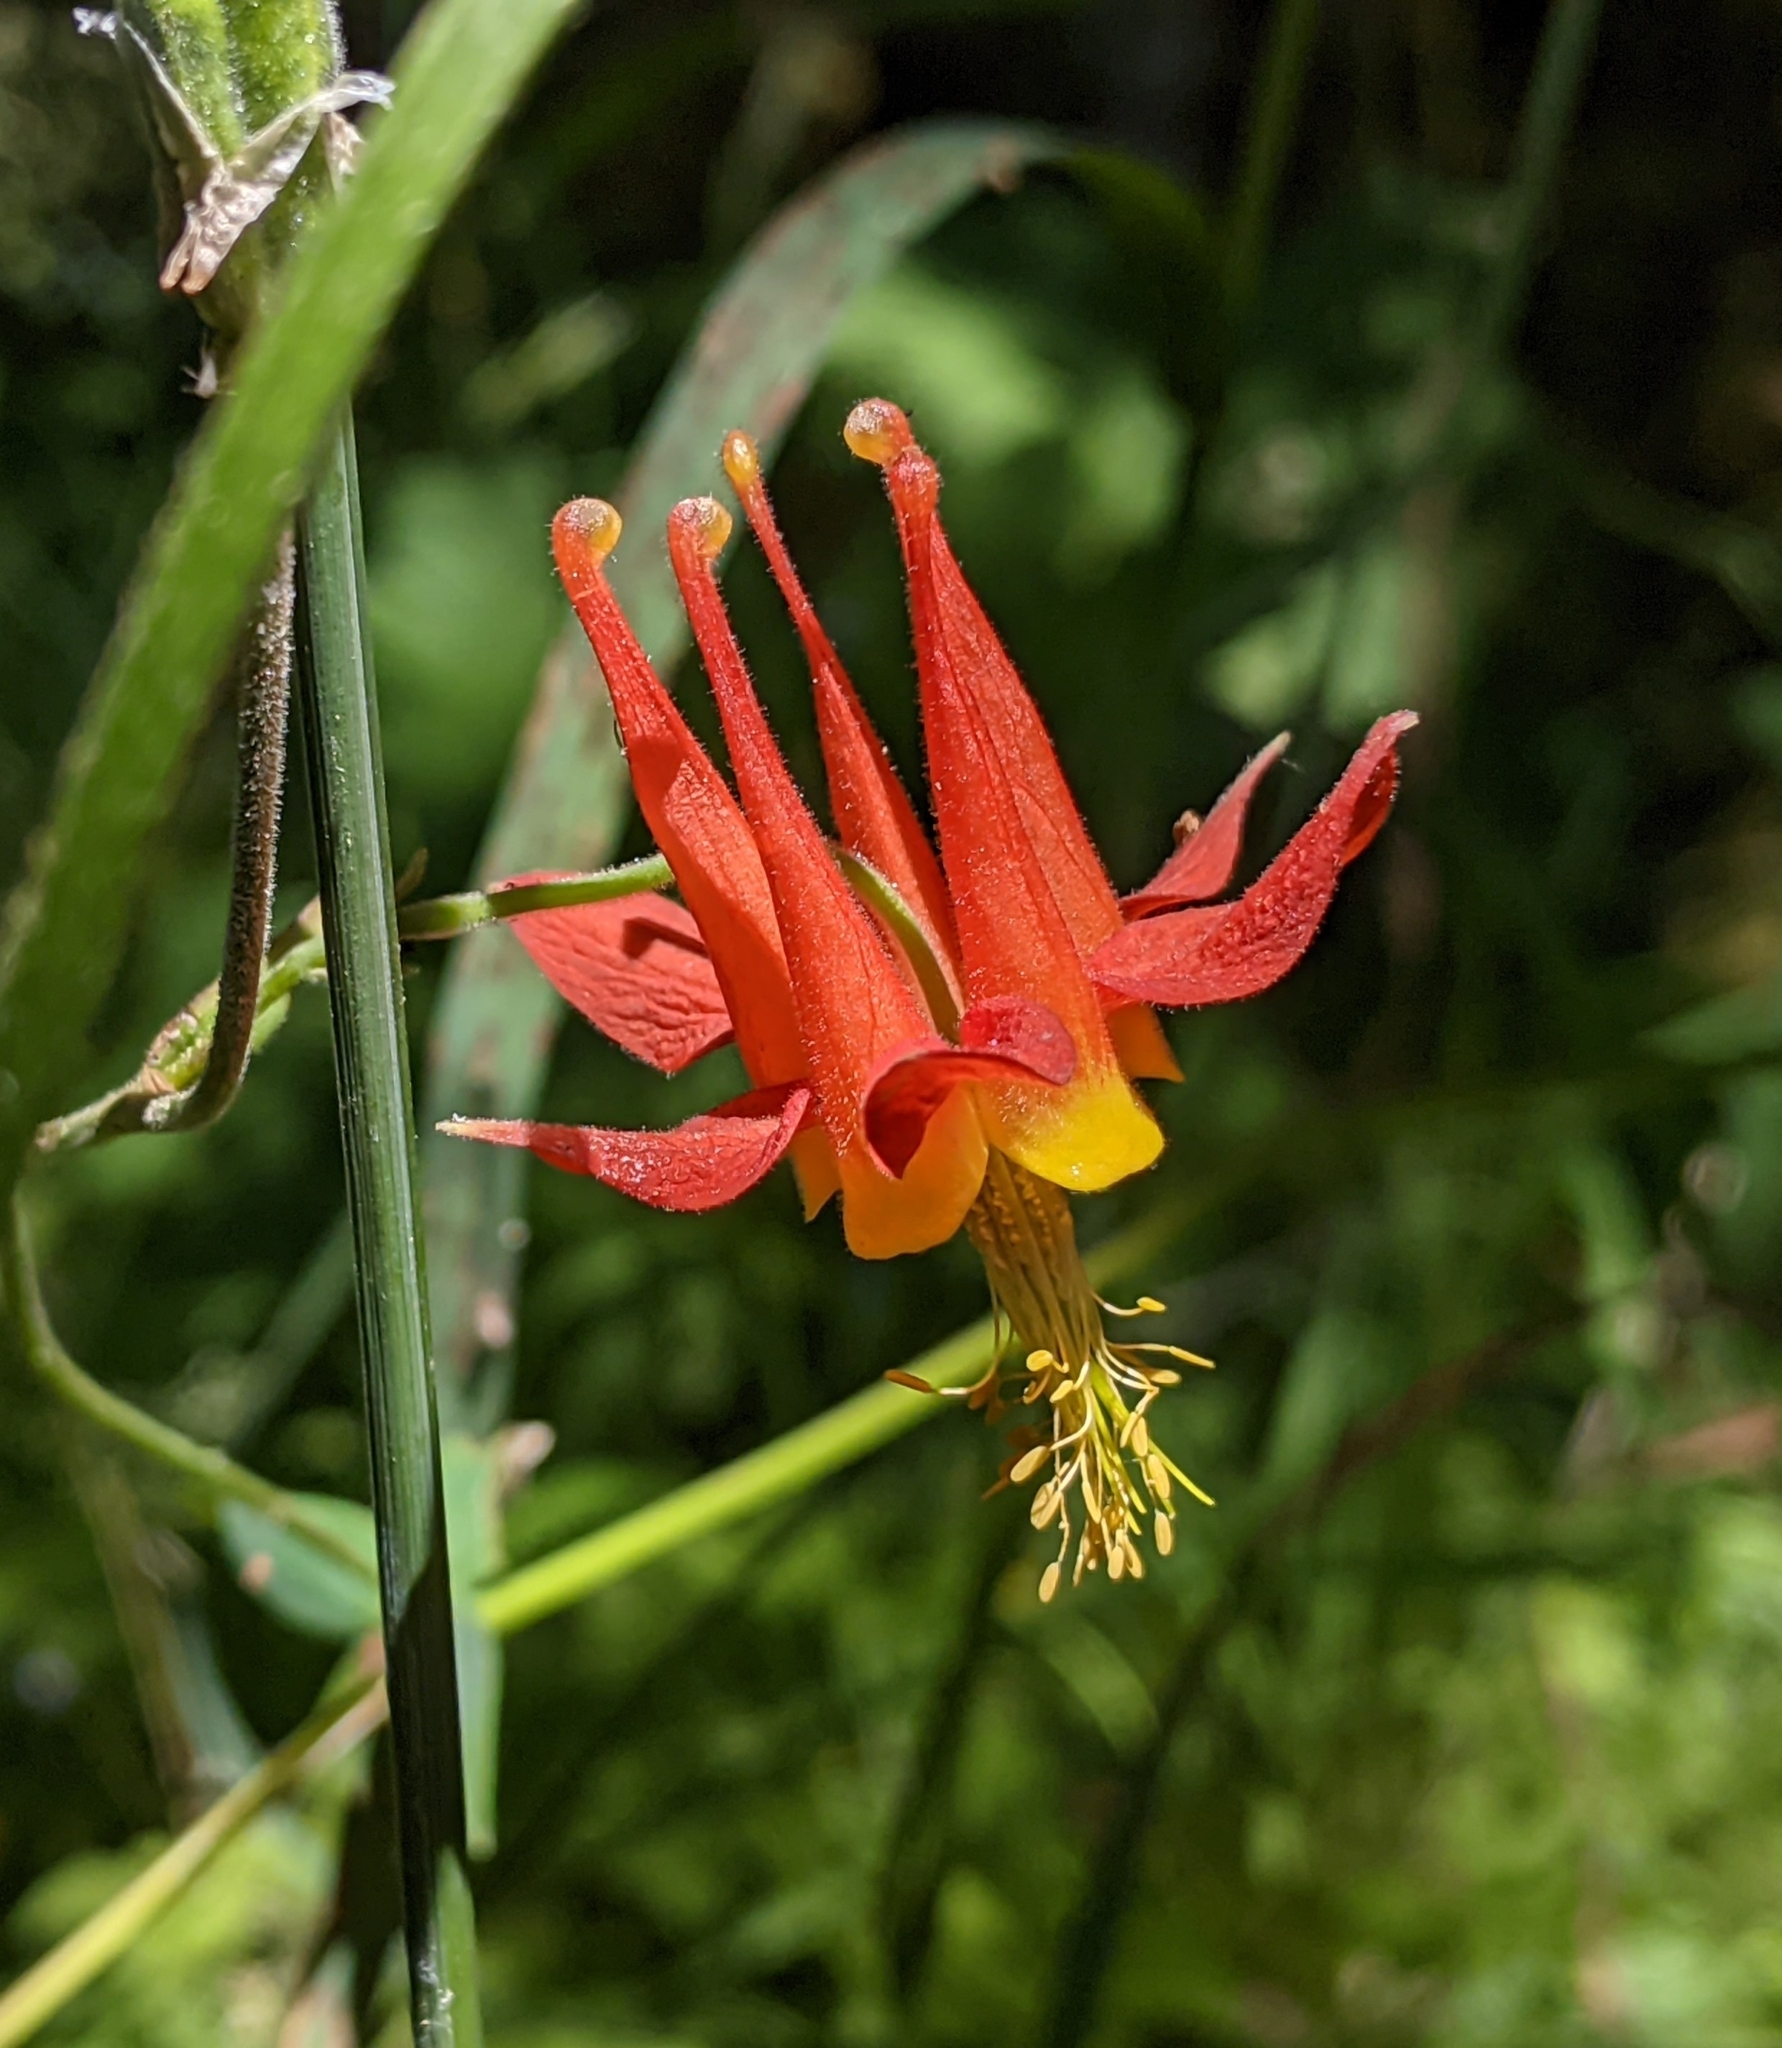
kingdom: Plantae
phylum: Tracheophyta
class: Magnoliopsida
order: Ranunculales
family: Ranunculaceae
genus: Aquilegia
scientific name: Aquilegia formosa
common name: Sitka columbine
